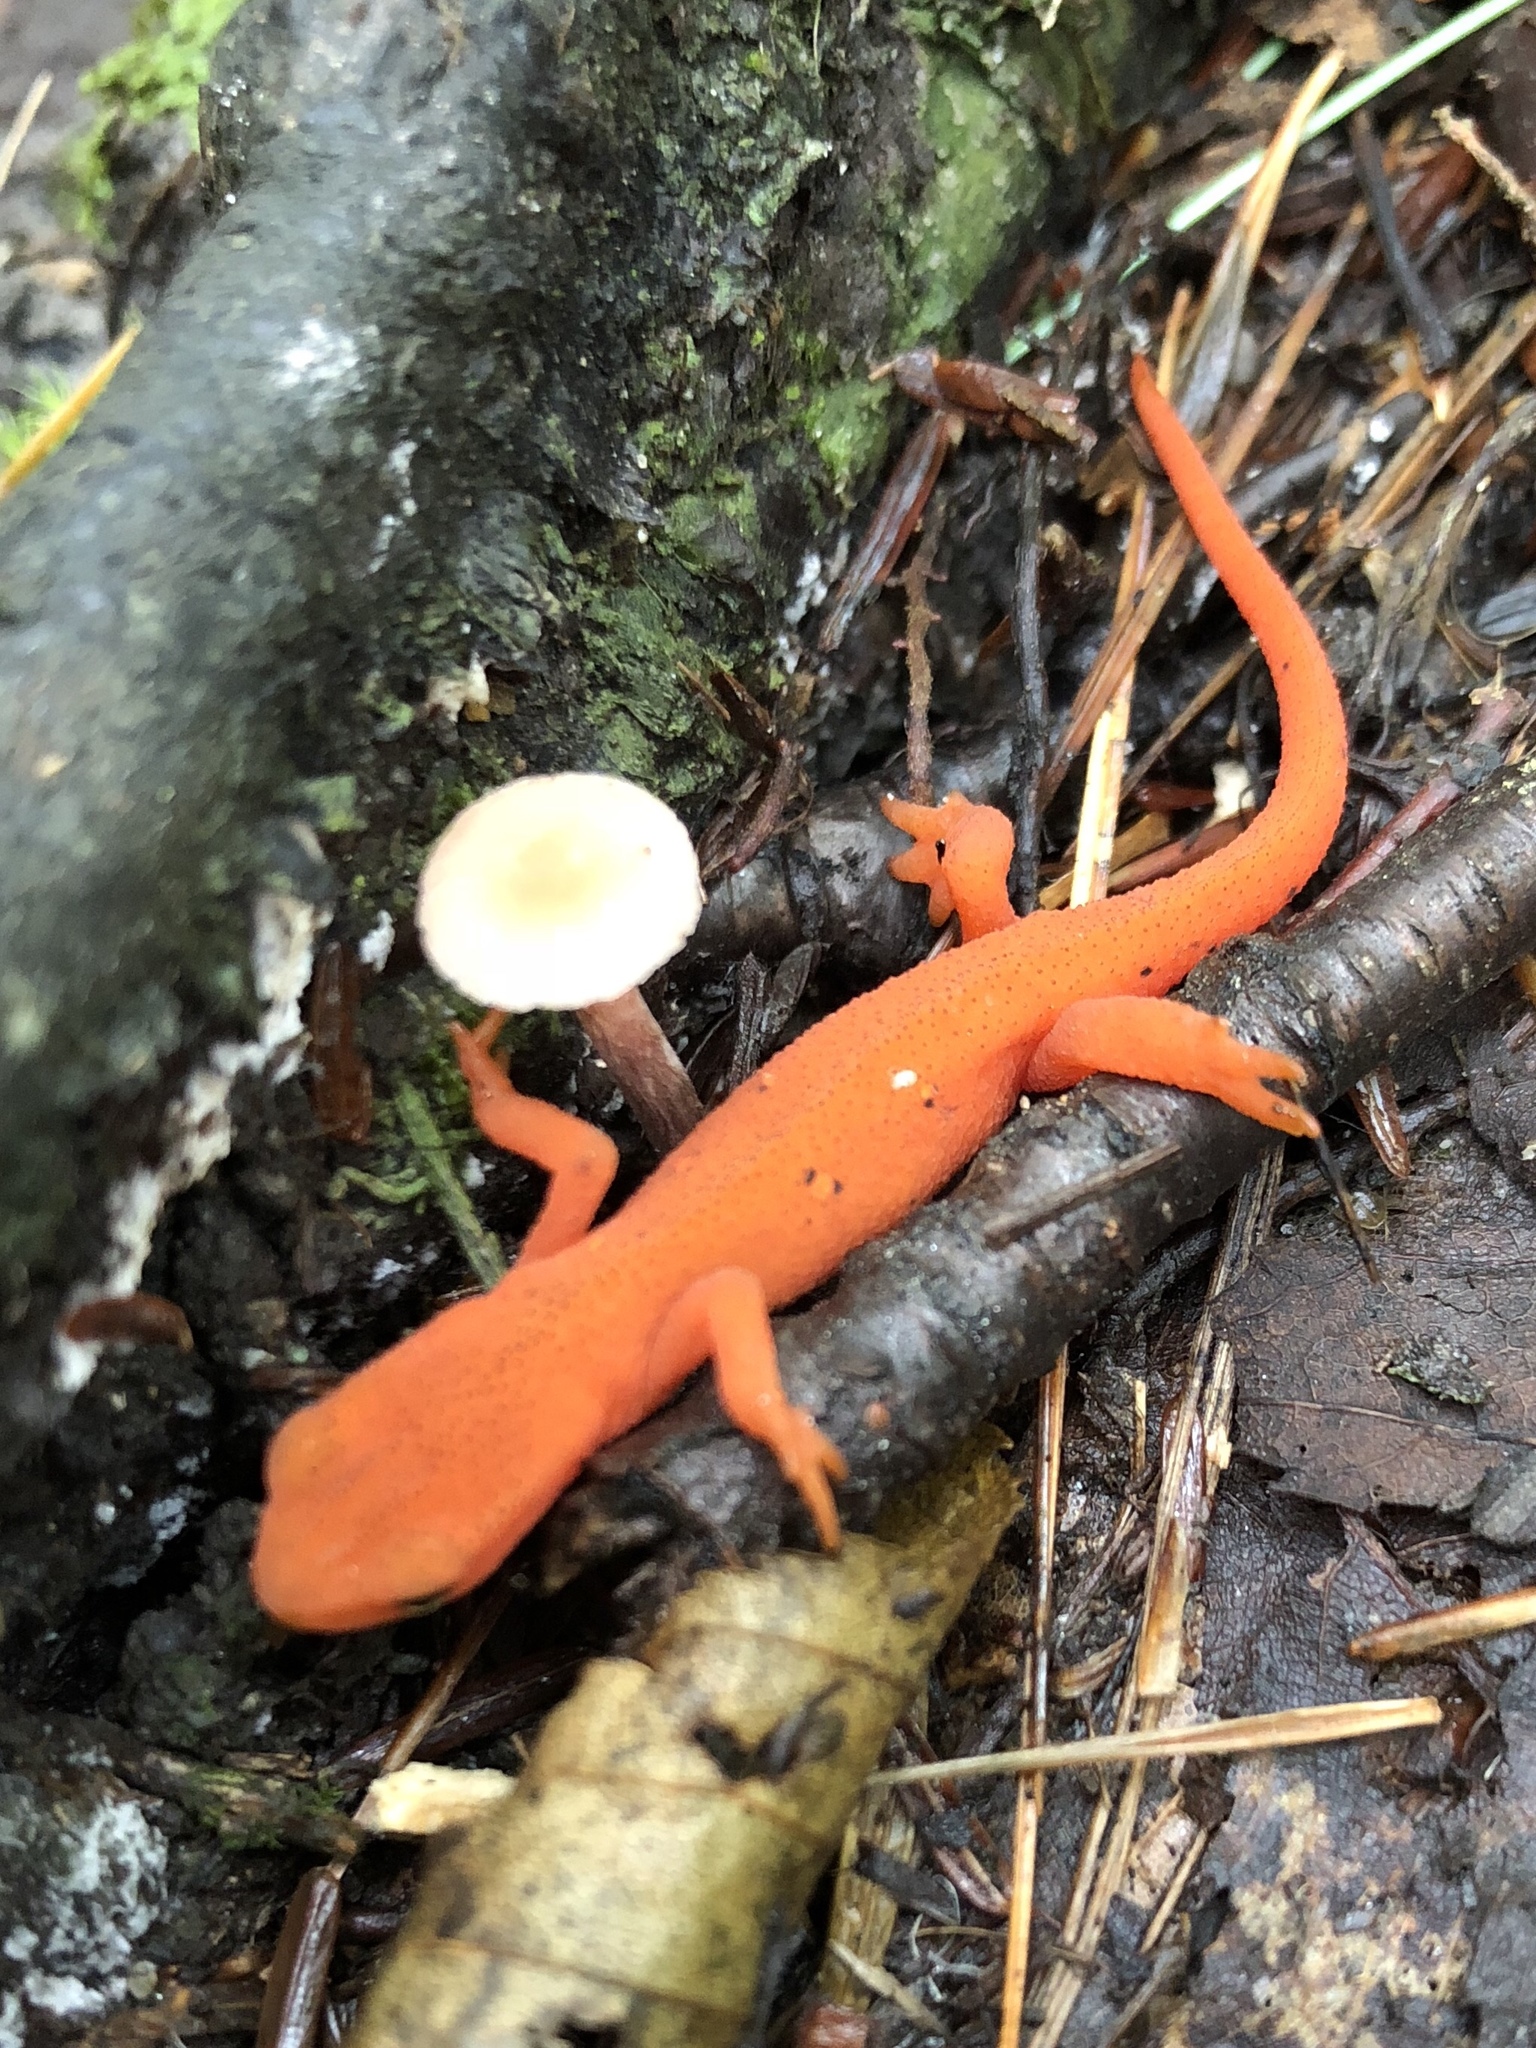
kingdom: Animalia
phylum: Chordata
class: Amphibia
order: Caudata
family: Salamandridae
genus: Notophthalmus
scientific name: Notophthalmus viridescens
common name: Eastern newt
